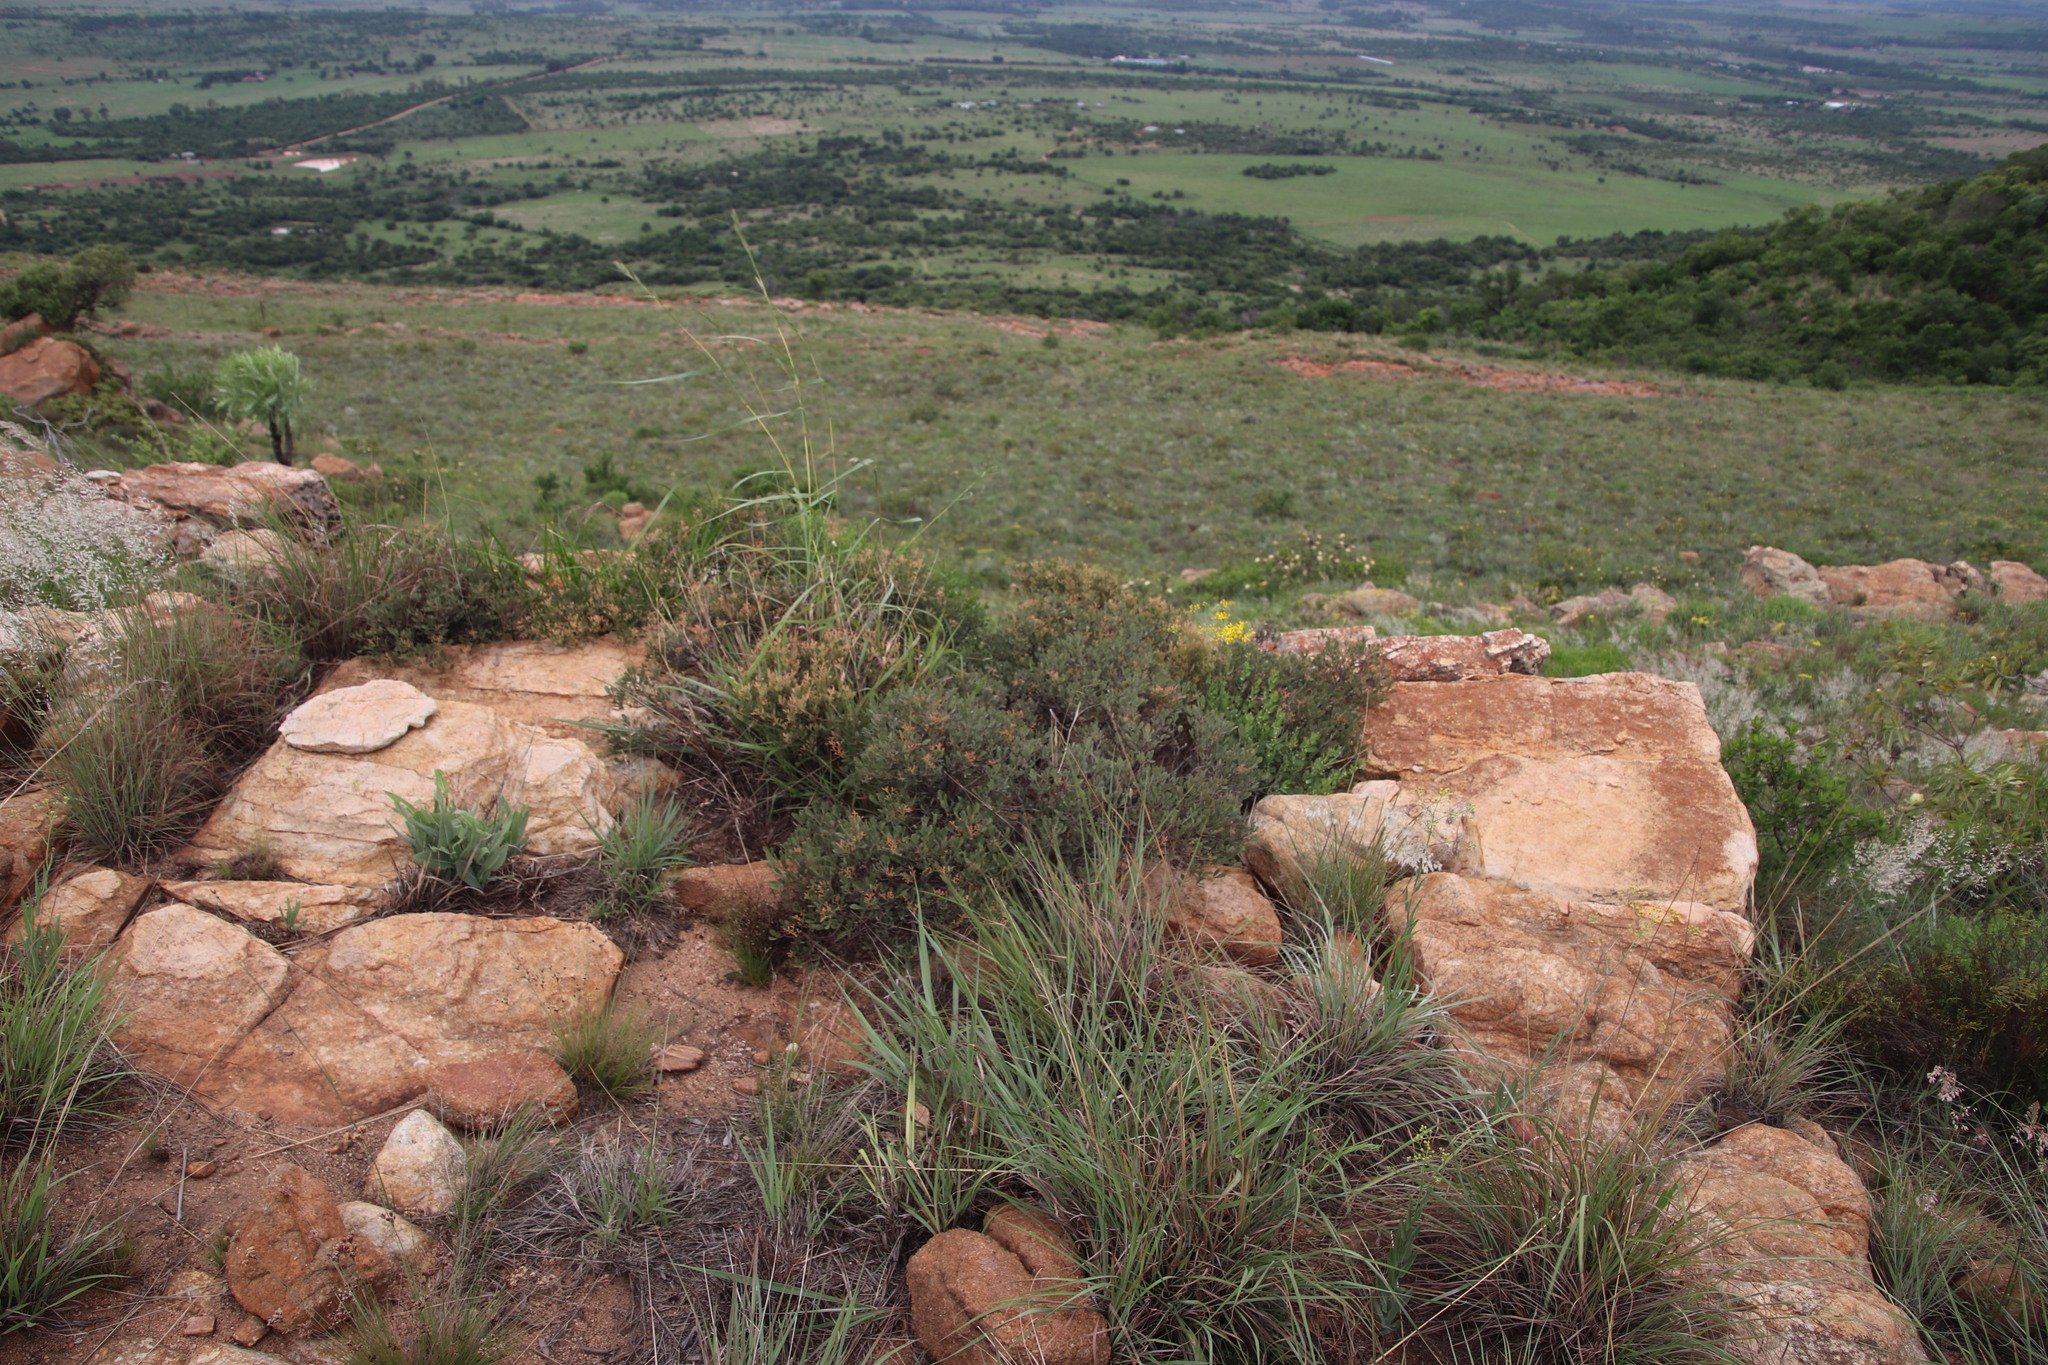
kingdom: Plantae
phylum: Tracheophyta
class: Magnoliopsida
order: Sapindales
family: Anacardiaceae
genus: Searsia
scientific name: Searsia magalismontana
